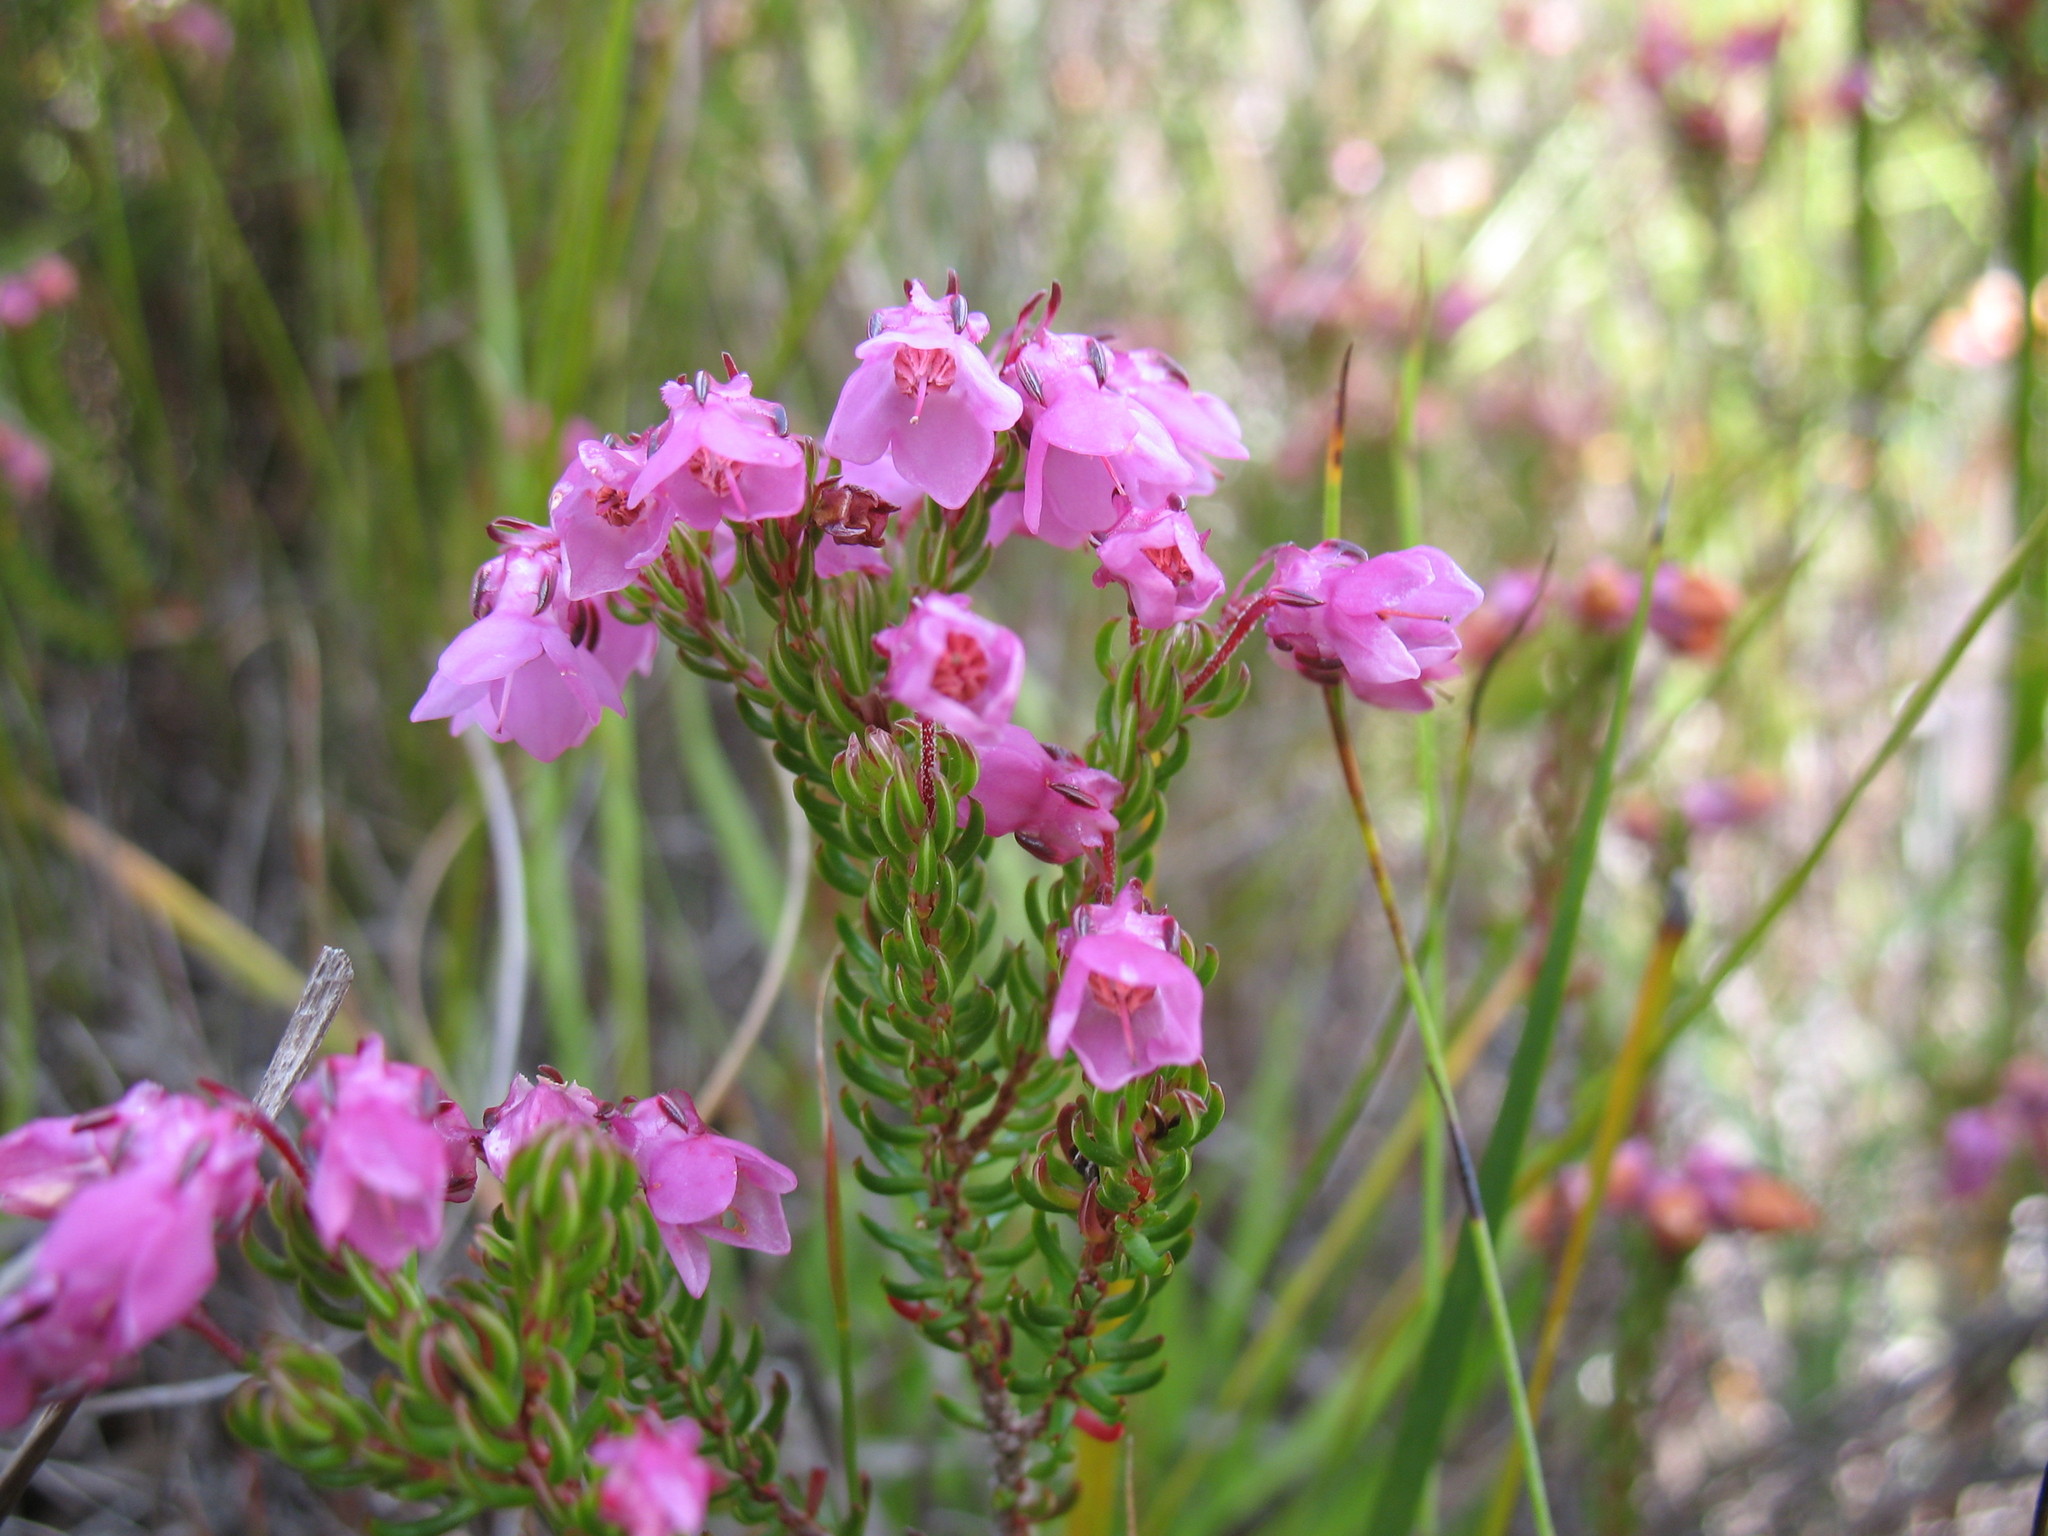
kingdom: Plantae
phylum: Tracheophyta
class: Magnoliopsida
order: Ericales
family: Ericaceae
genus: Erica
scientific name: Erica cubica
